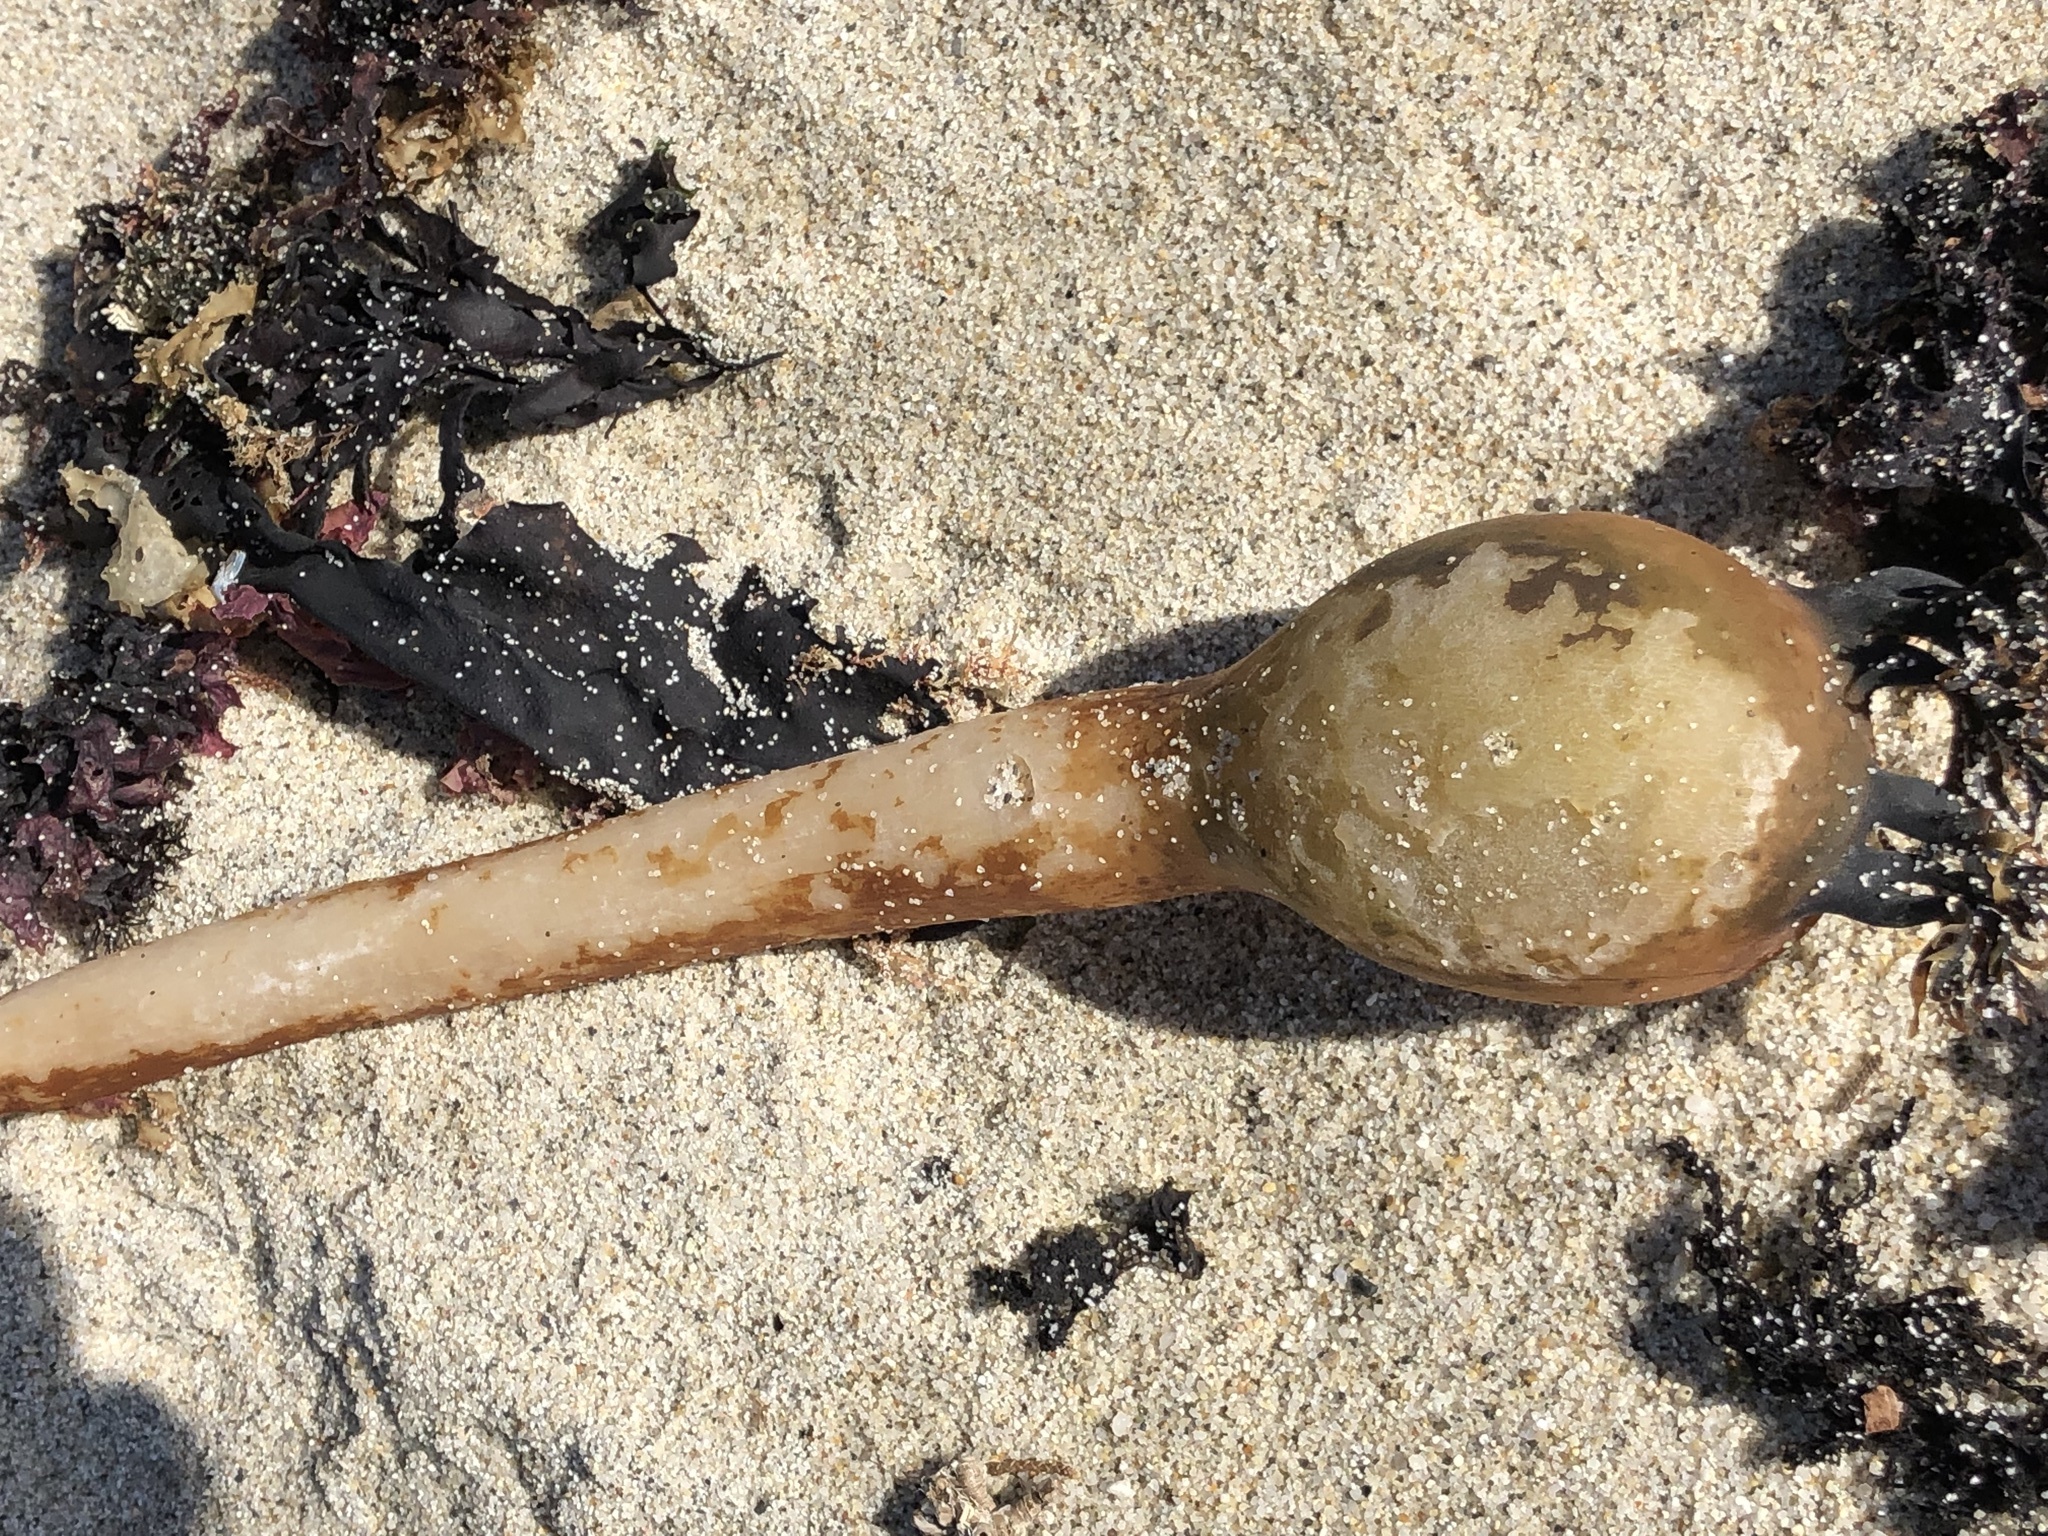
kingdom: Chromista
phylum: Ochrophyta
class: Phaeophyceae
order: Laminariales
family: Laminariaceae
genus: Nereocystis
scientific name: Nereocystis luetkeana
